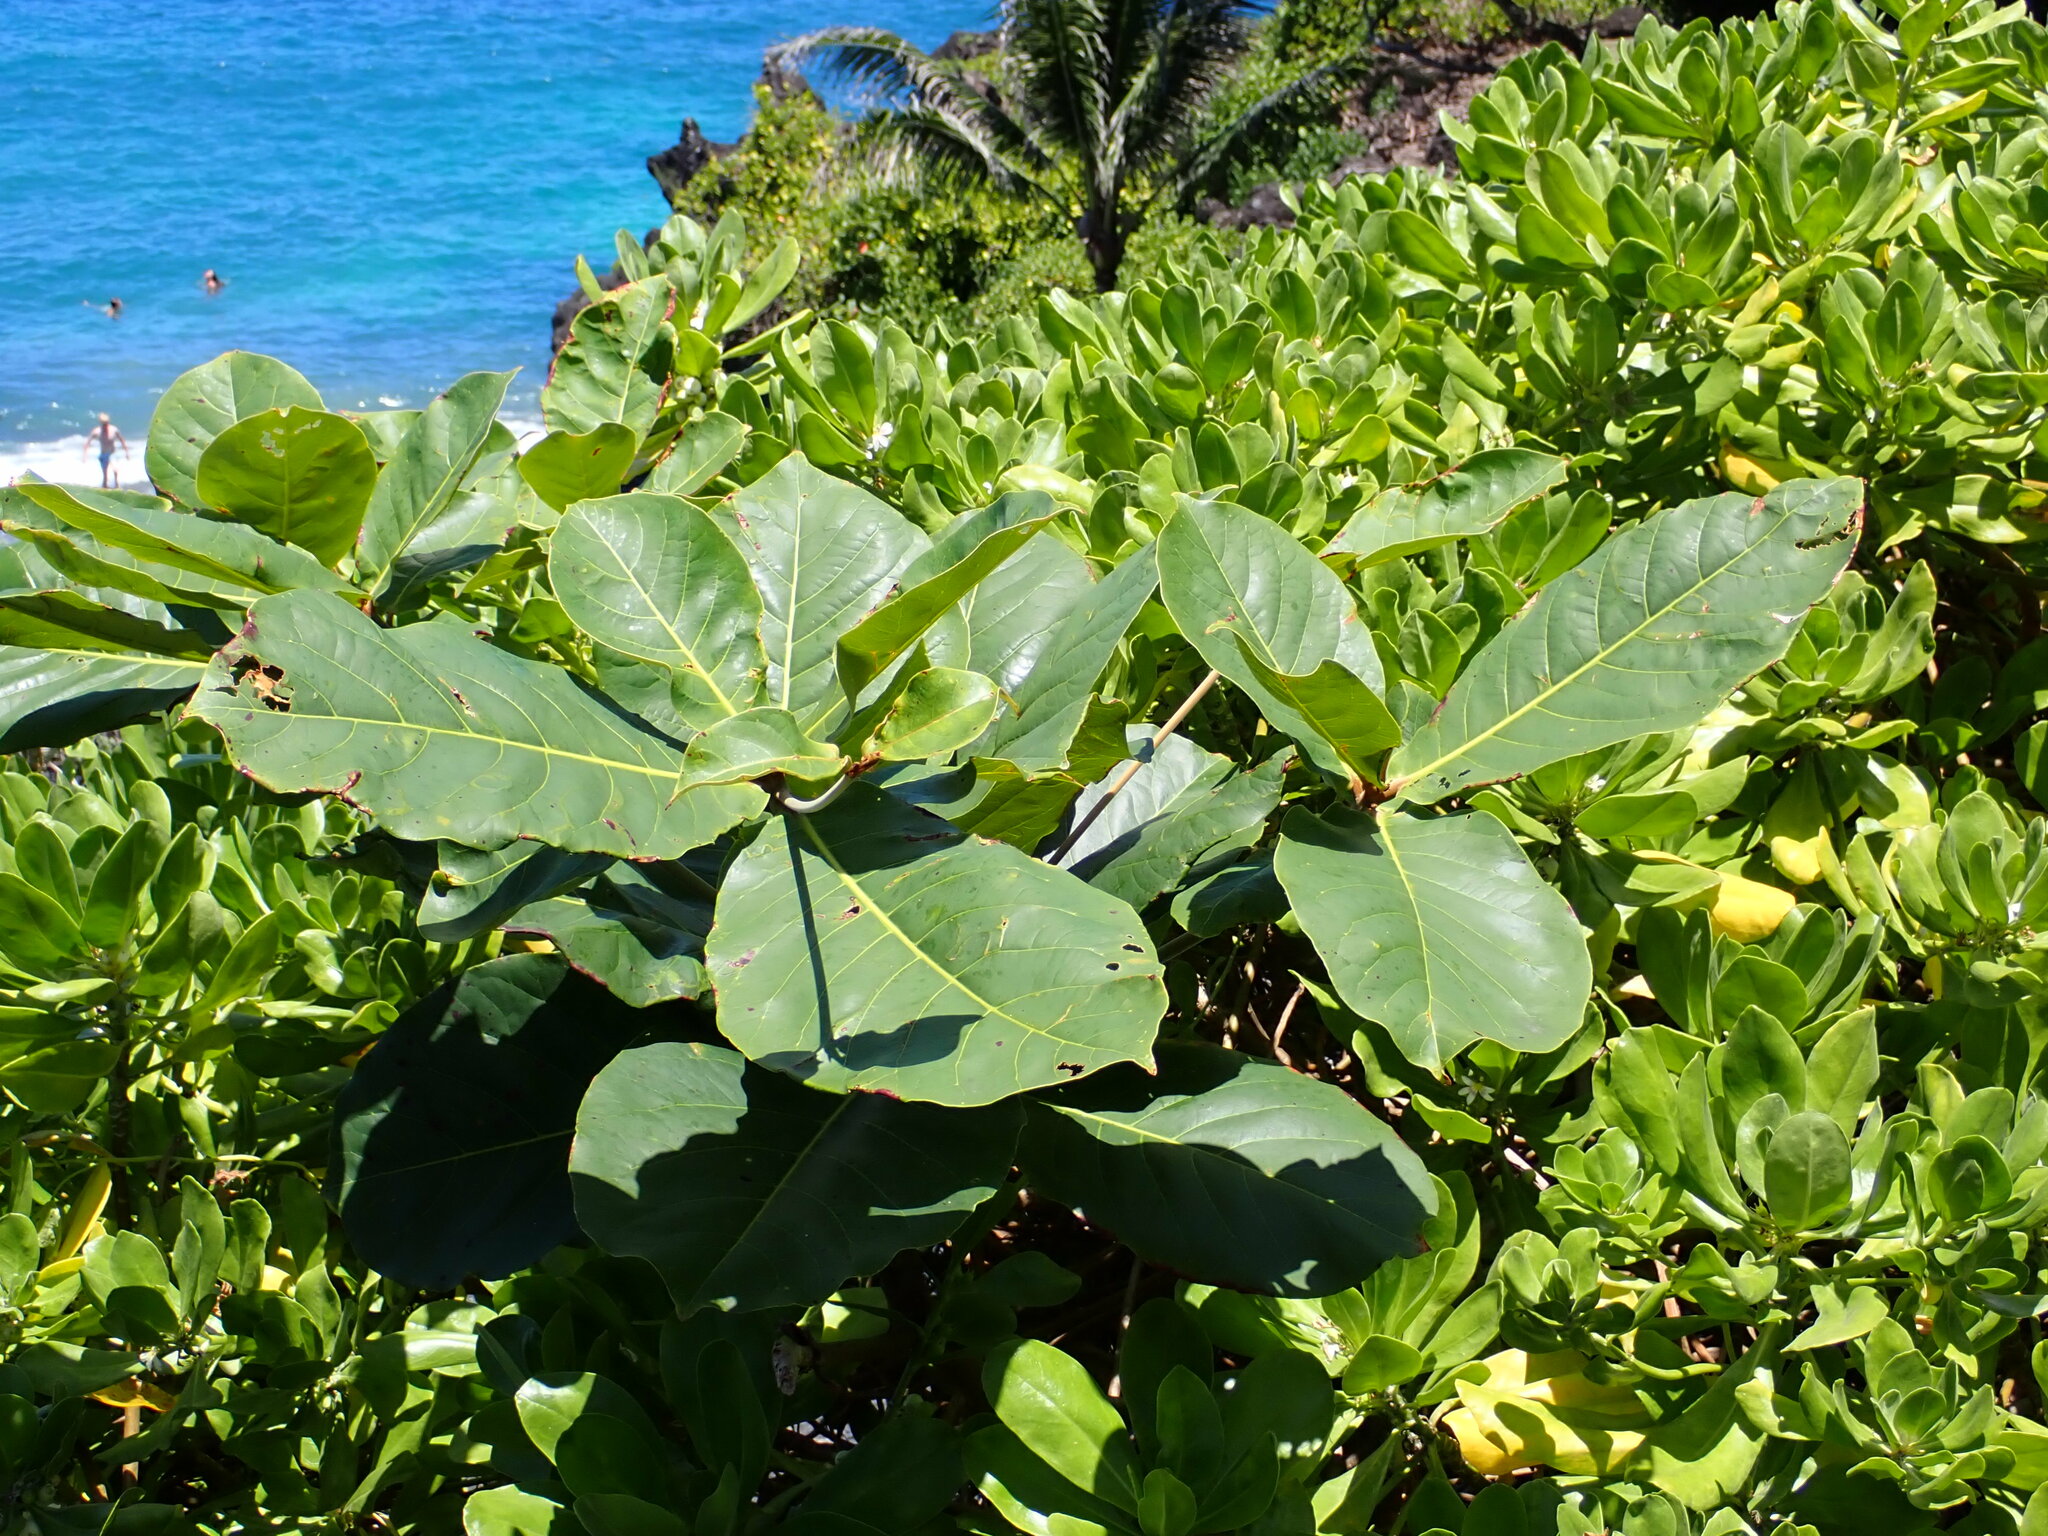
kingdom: Plantae
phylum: Tracheophyta
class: Magnoliopsida
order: Myrtales
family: Combretaceae
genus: Terminalia
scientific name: Terminalia catappa
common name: Tropical almond
